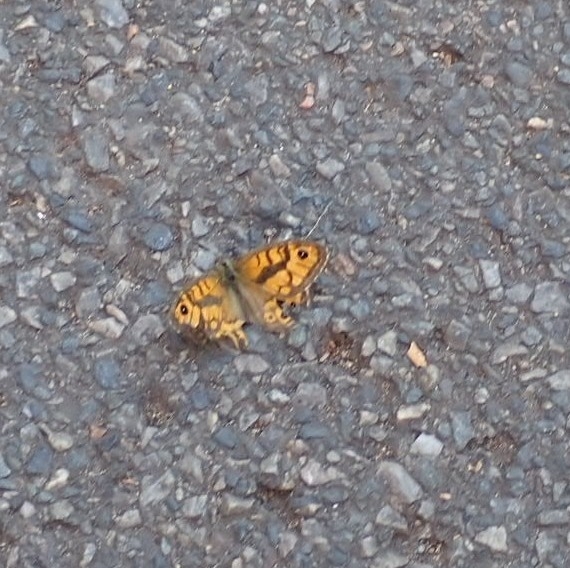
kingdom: Animalia
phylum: Arthropoda
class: Insecta
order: Lepidoptera
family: Nymphalidae
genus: Pararge
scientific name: Pararge Lasiommata megera
